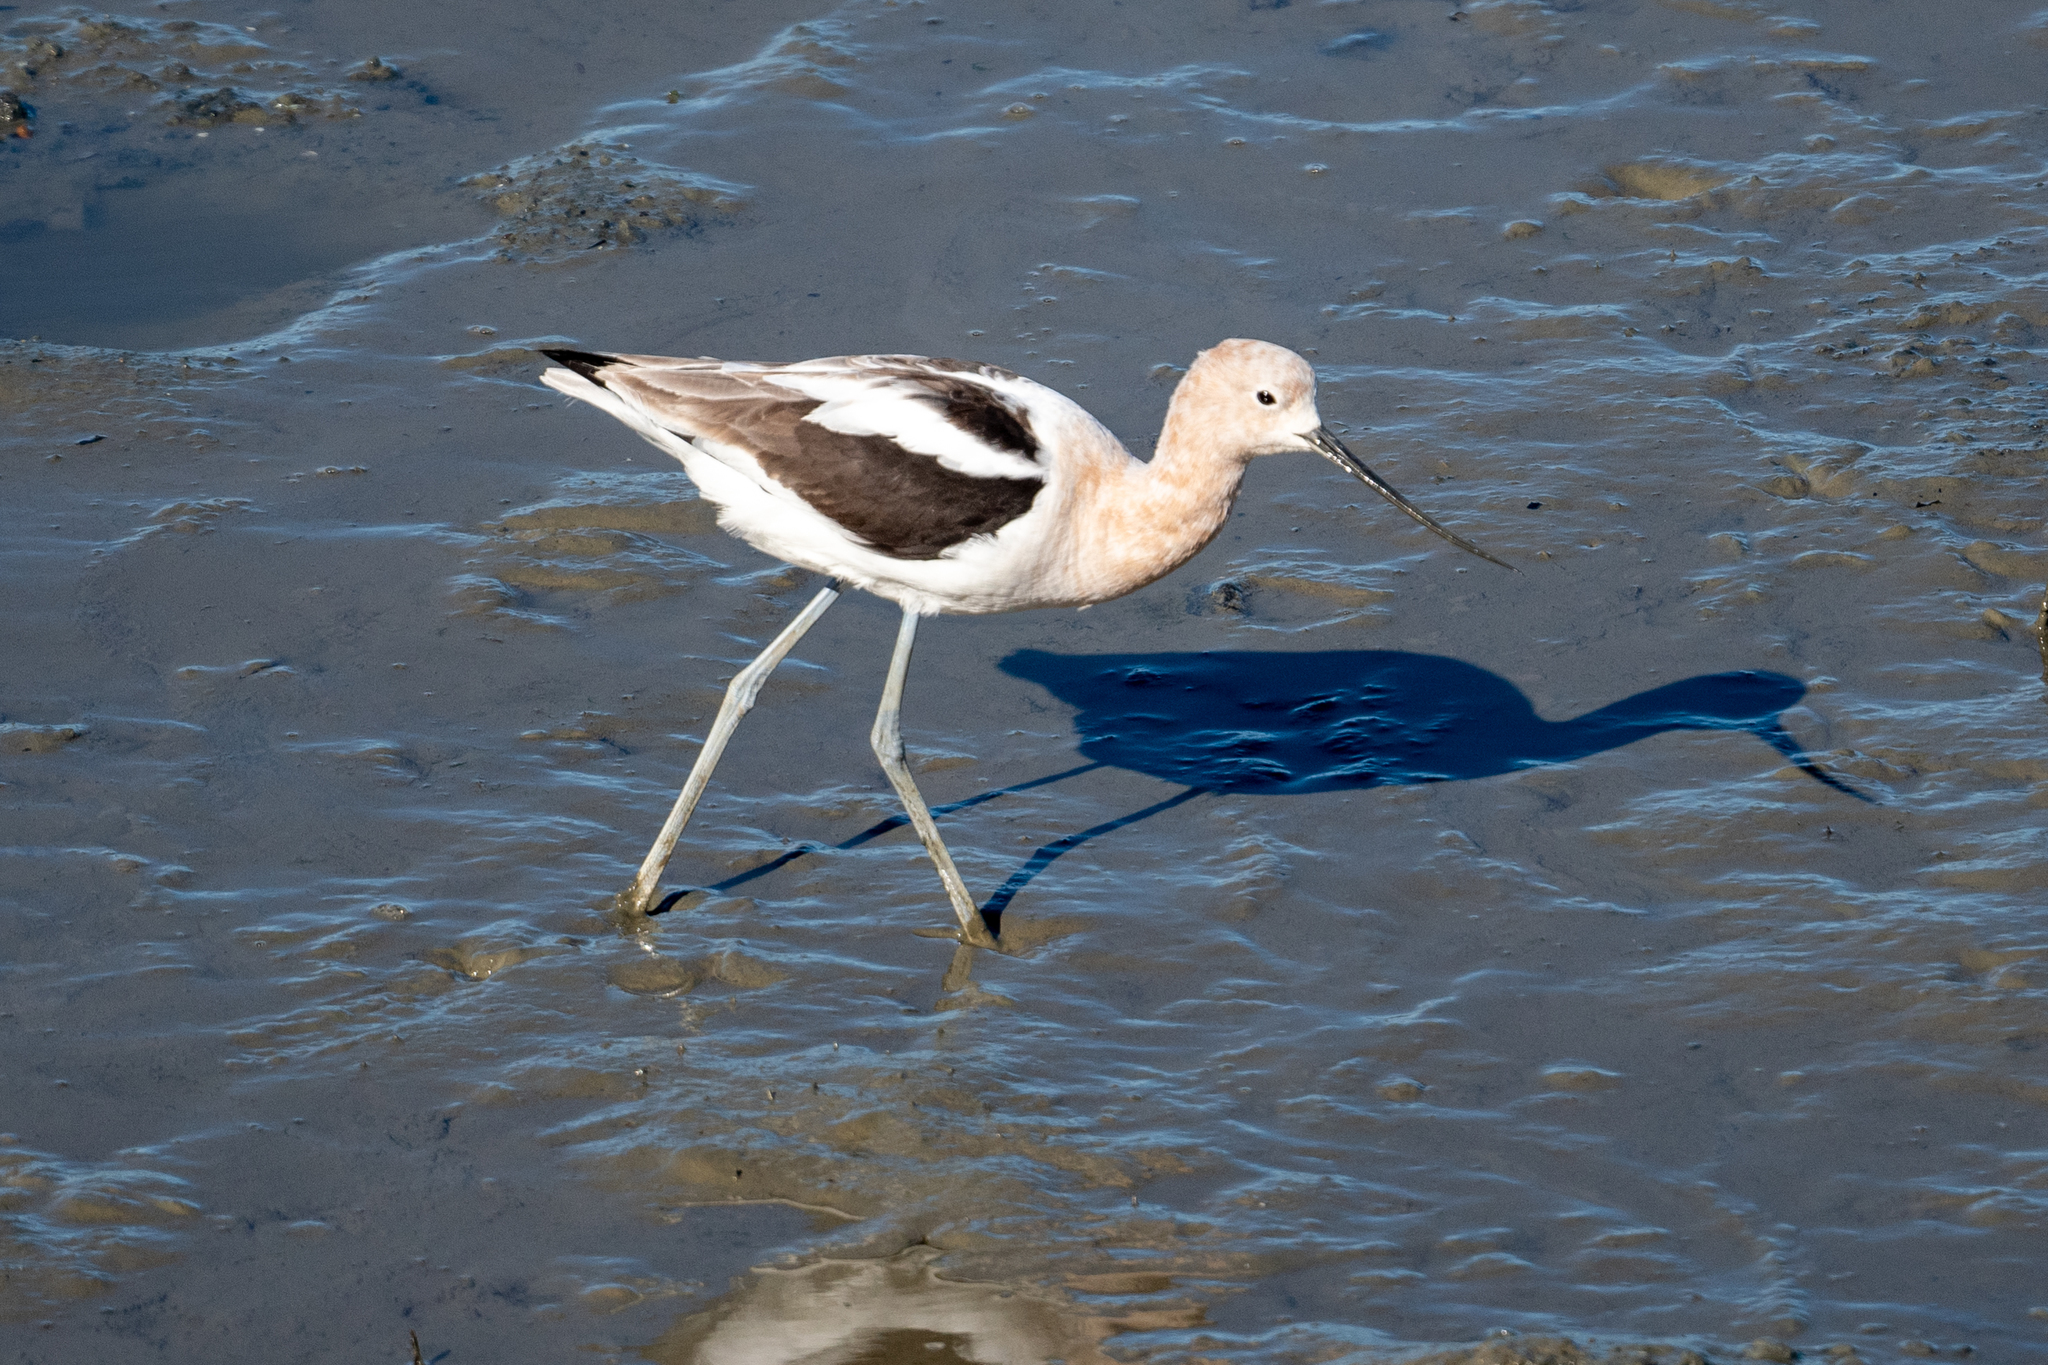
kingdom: Animalia
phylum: Chordata
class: Aves
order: Charadriiformes
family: Recurvirostridae
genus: Recurvirostra
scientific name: Recurvirostra americana
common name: American avocet
